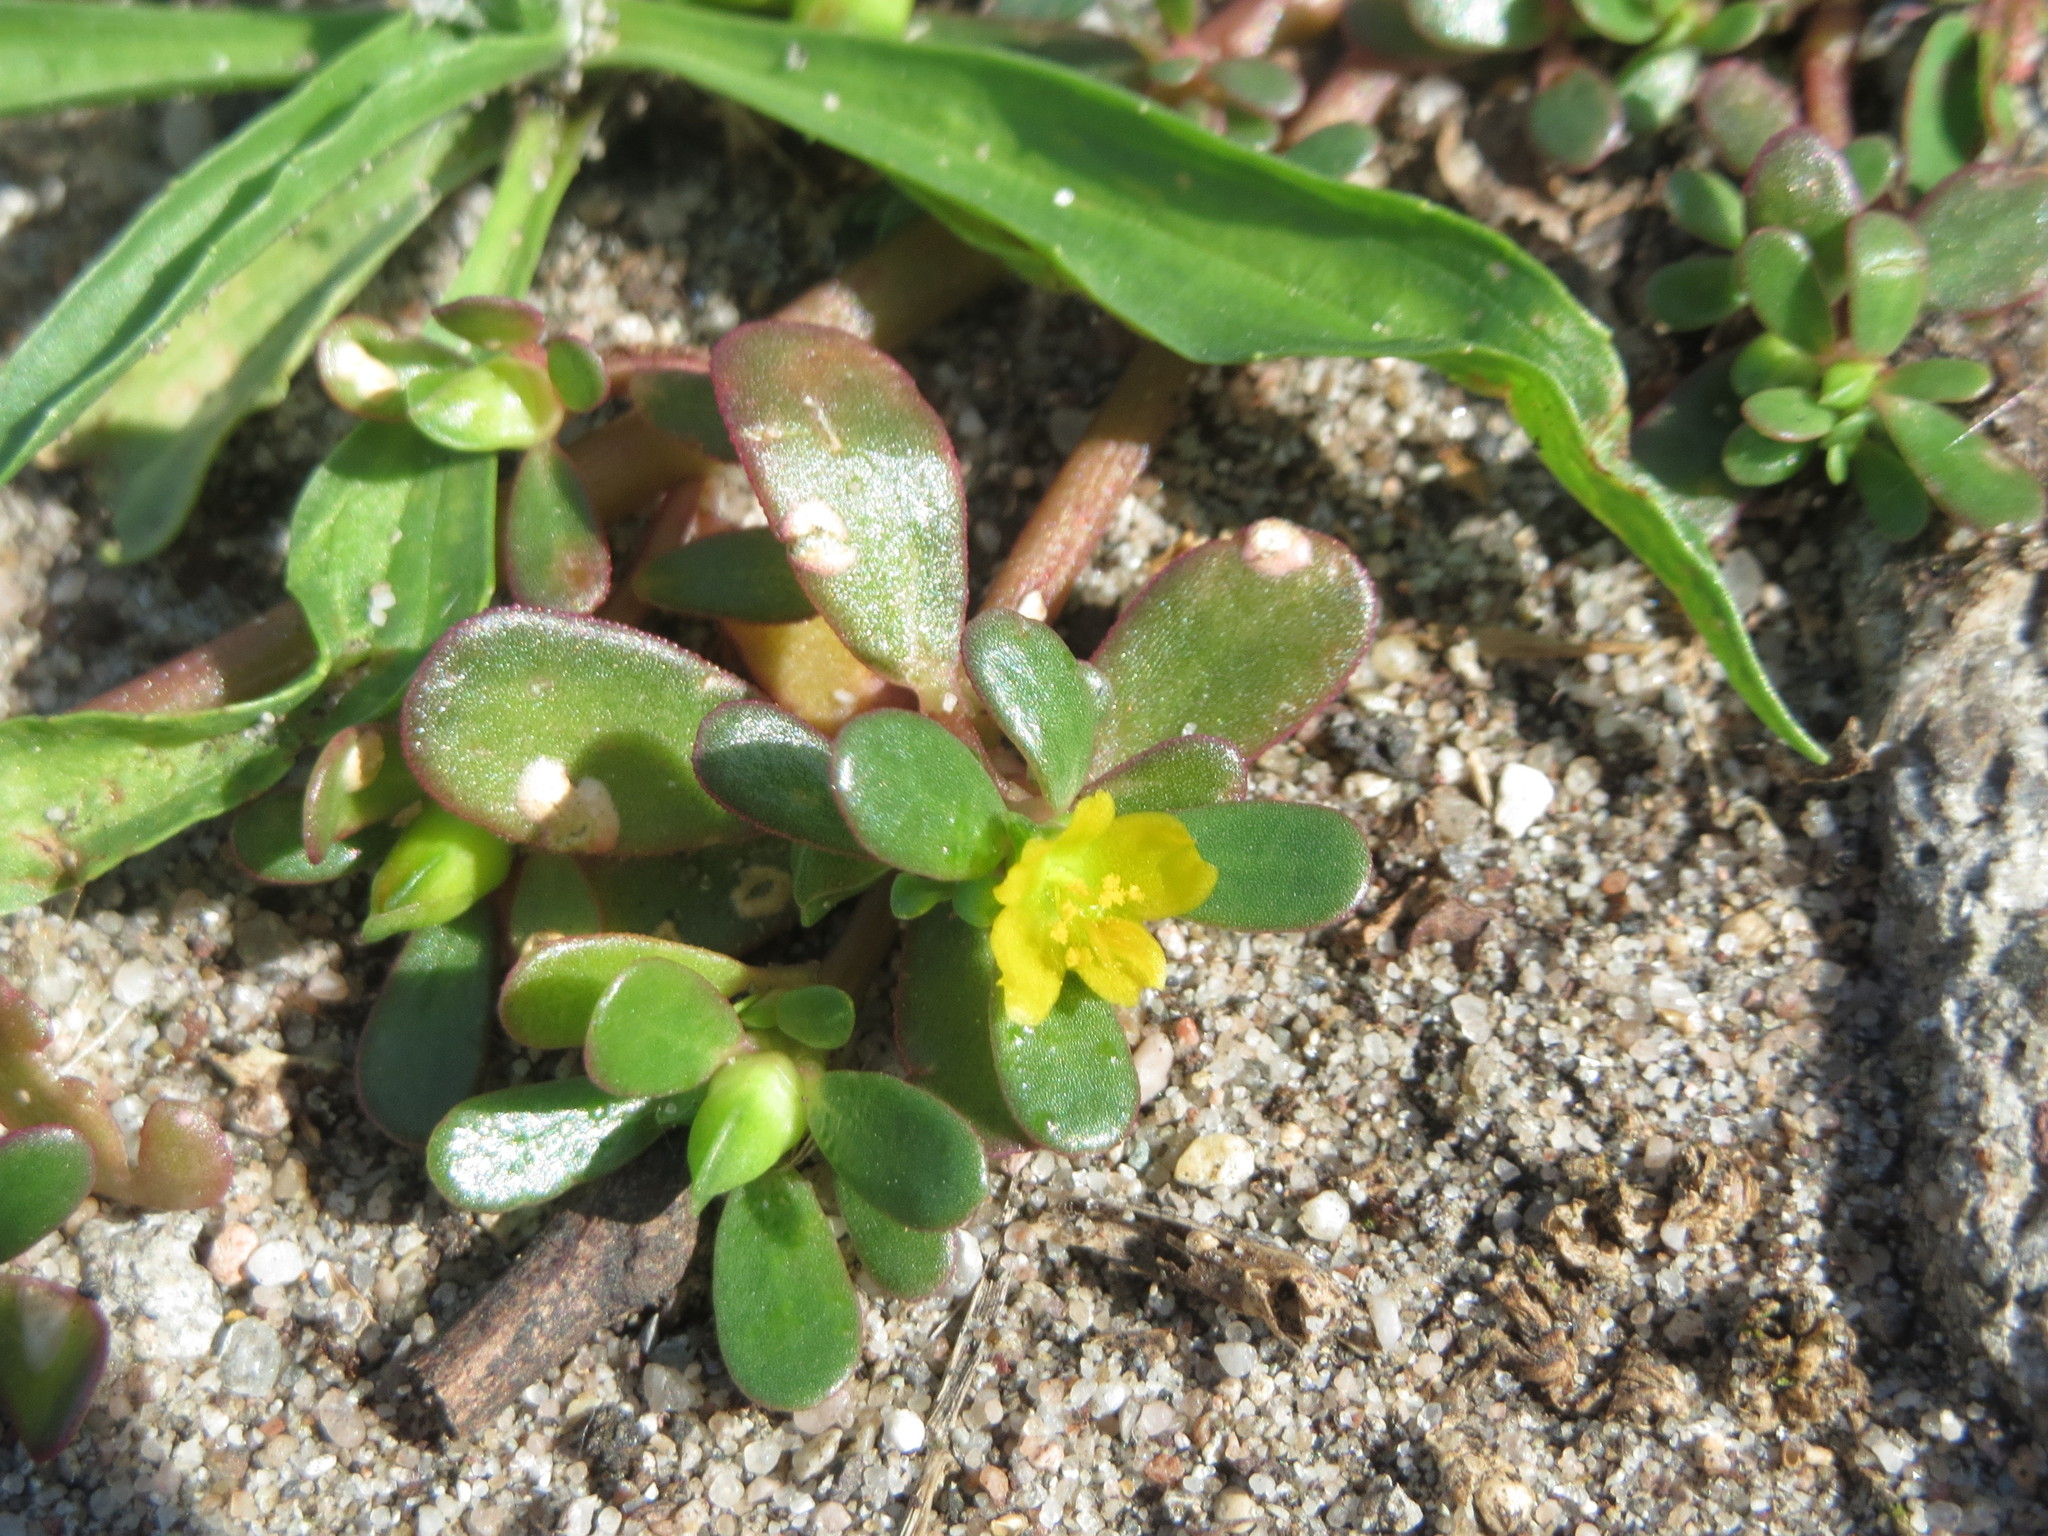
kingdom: Plantae
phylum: Tracheophyta
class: Magnoliopsida
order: Caryophyllales
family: Portulacaceae
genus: Portulaca
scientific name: Portulaca oleracea
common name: Common purslane
